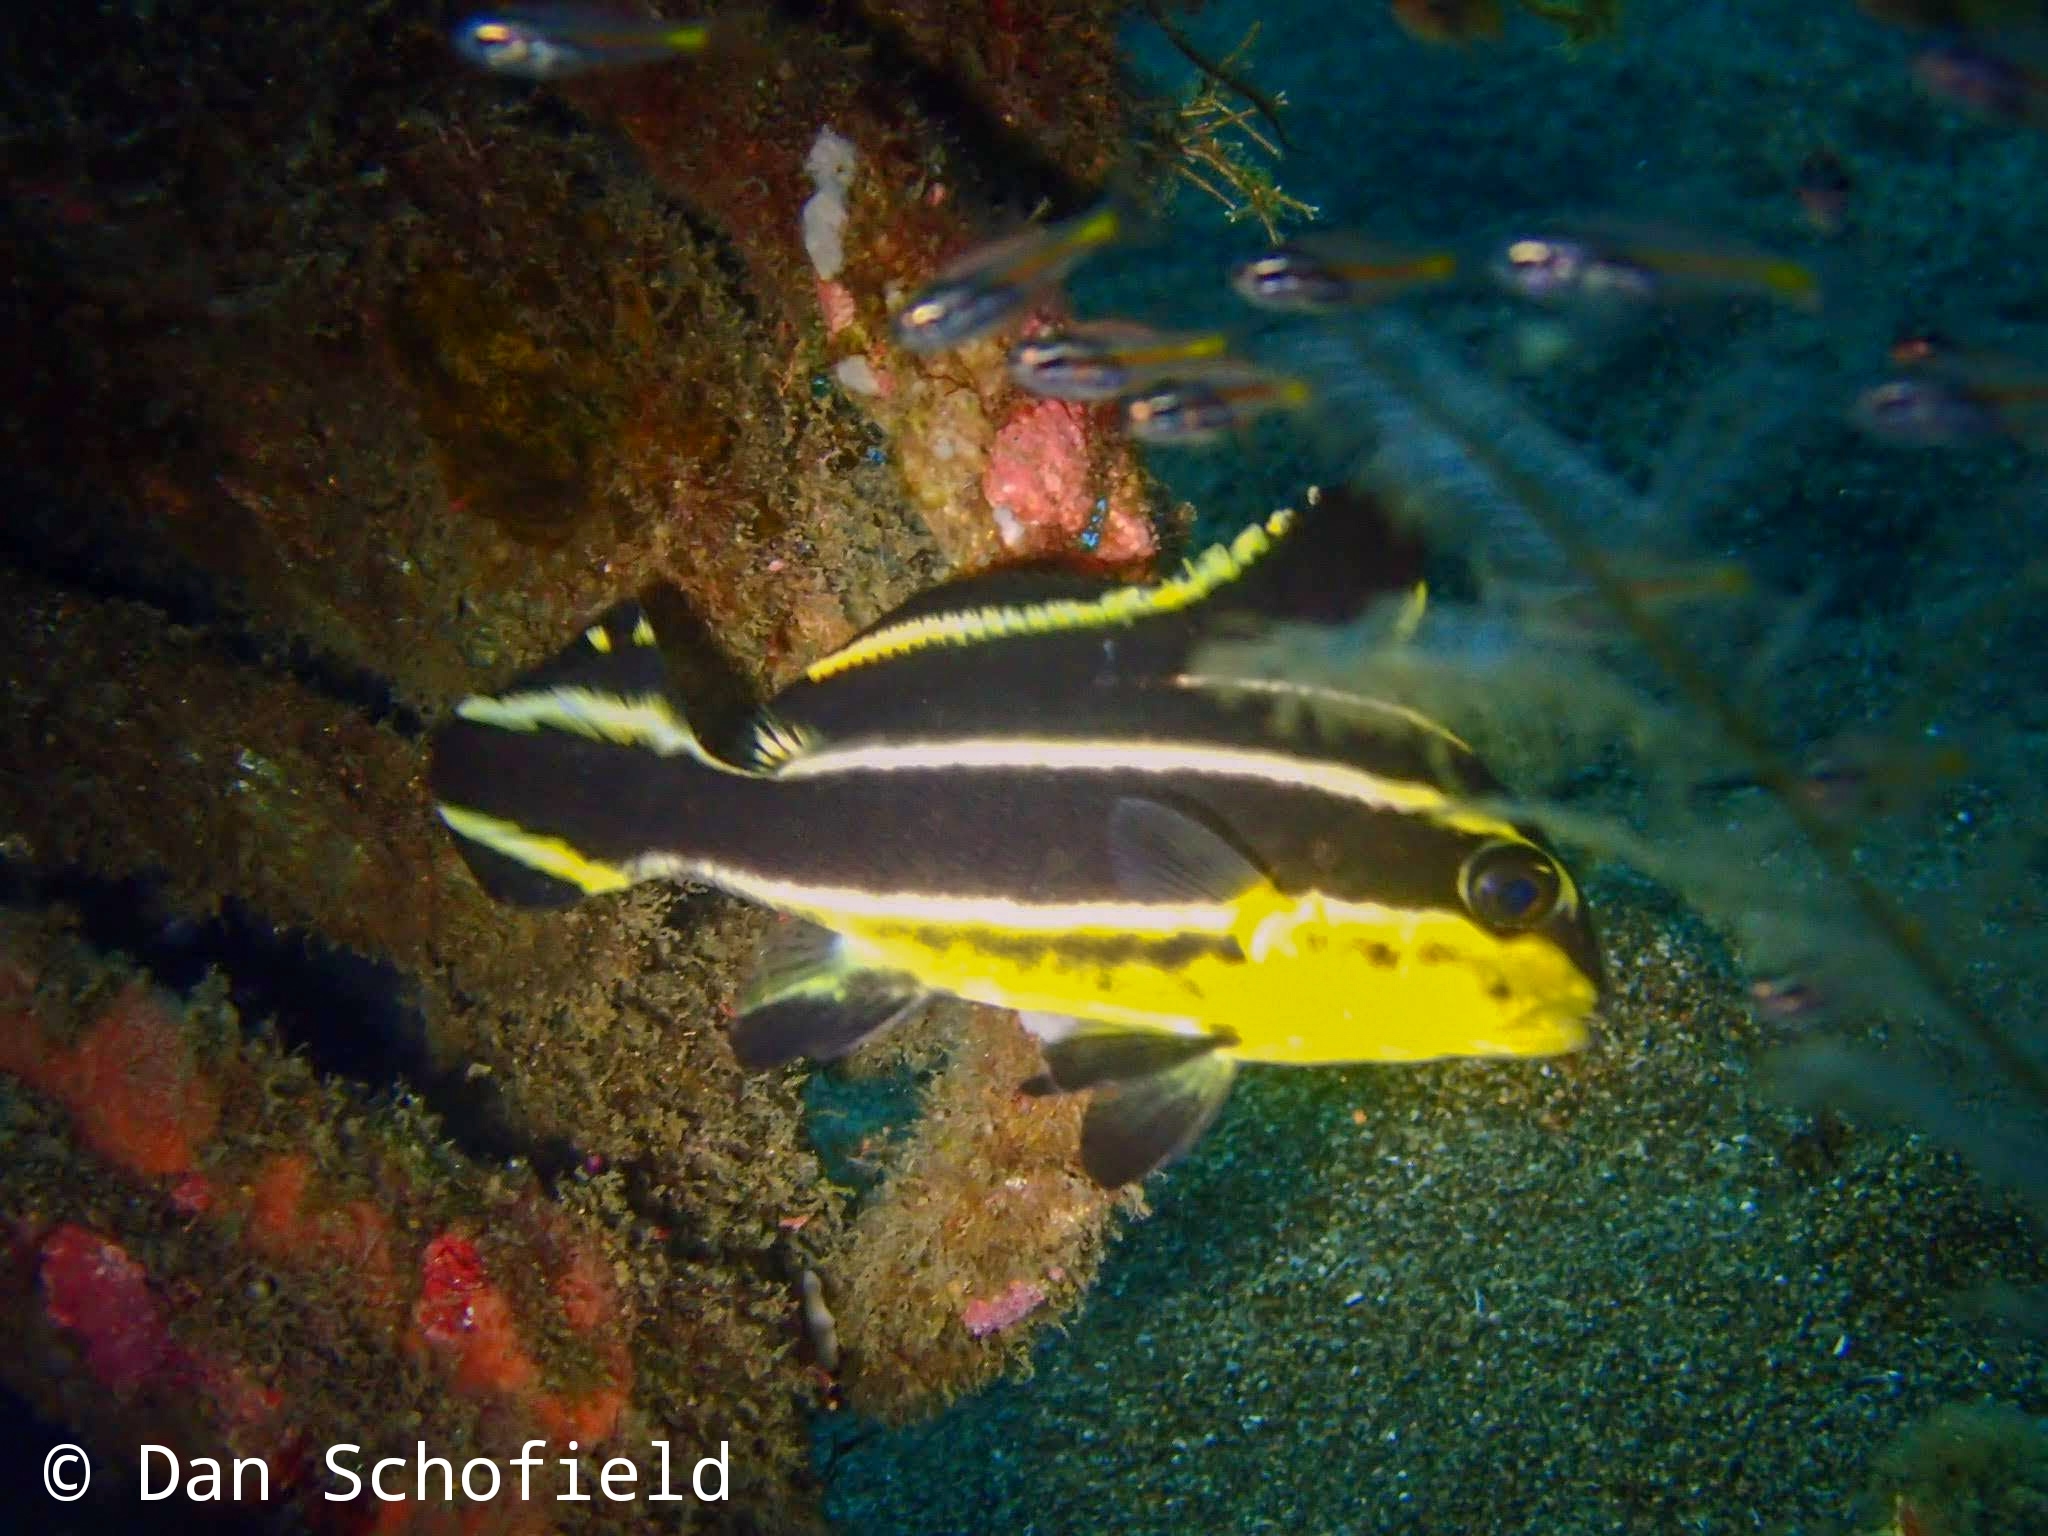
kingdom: Animalia
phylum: Chordata
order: Perciformes
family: Haemulidae
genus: Diagramma
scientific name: Diagramma pictum
